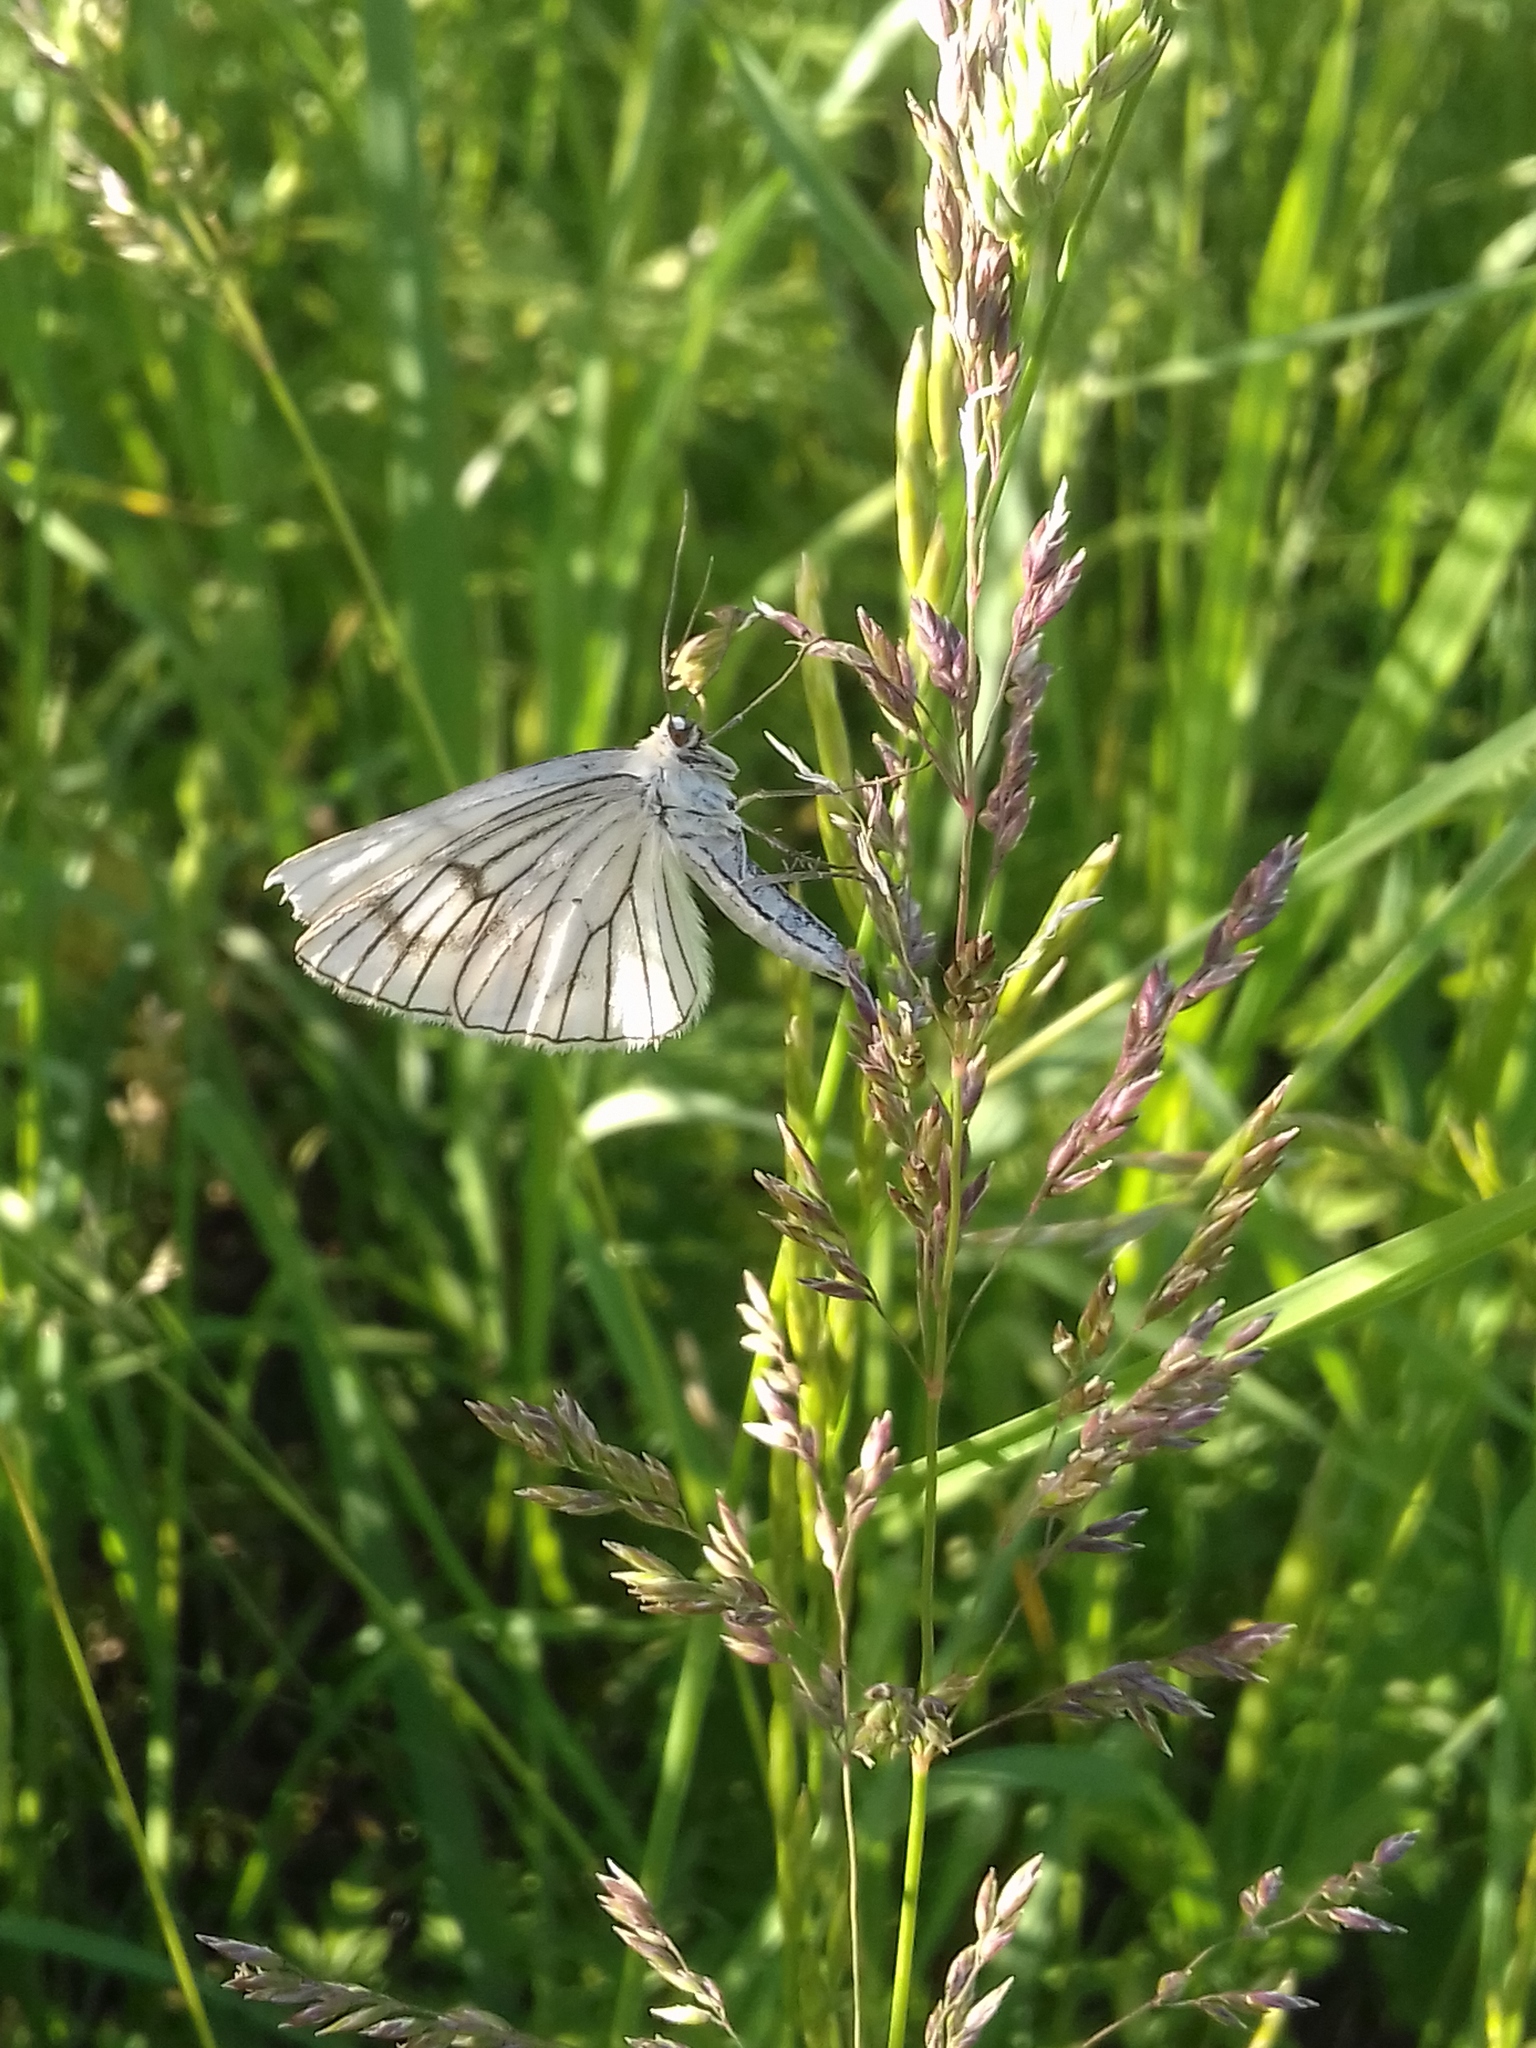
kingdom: Animalia
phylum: Arthropoda
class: Insecta
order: Lepidoptera
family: Geometridae
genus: Siona
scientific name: Siona lineata
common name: Black-veined moth
